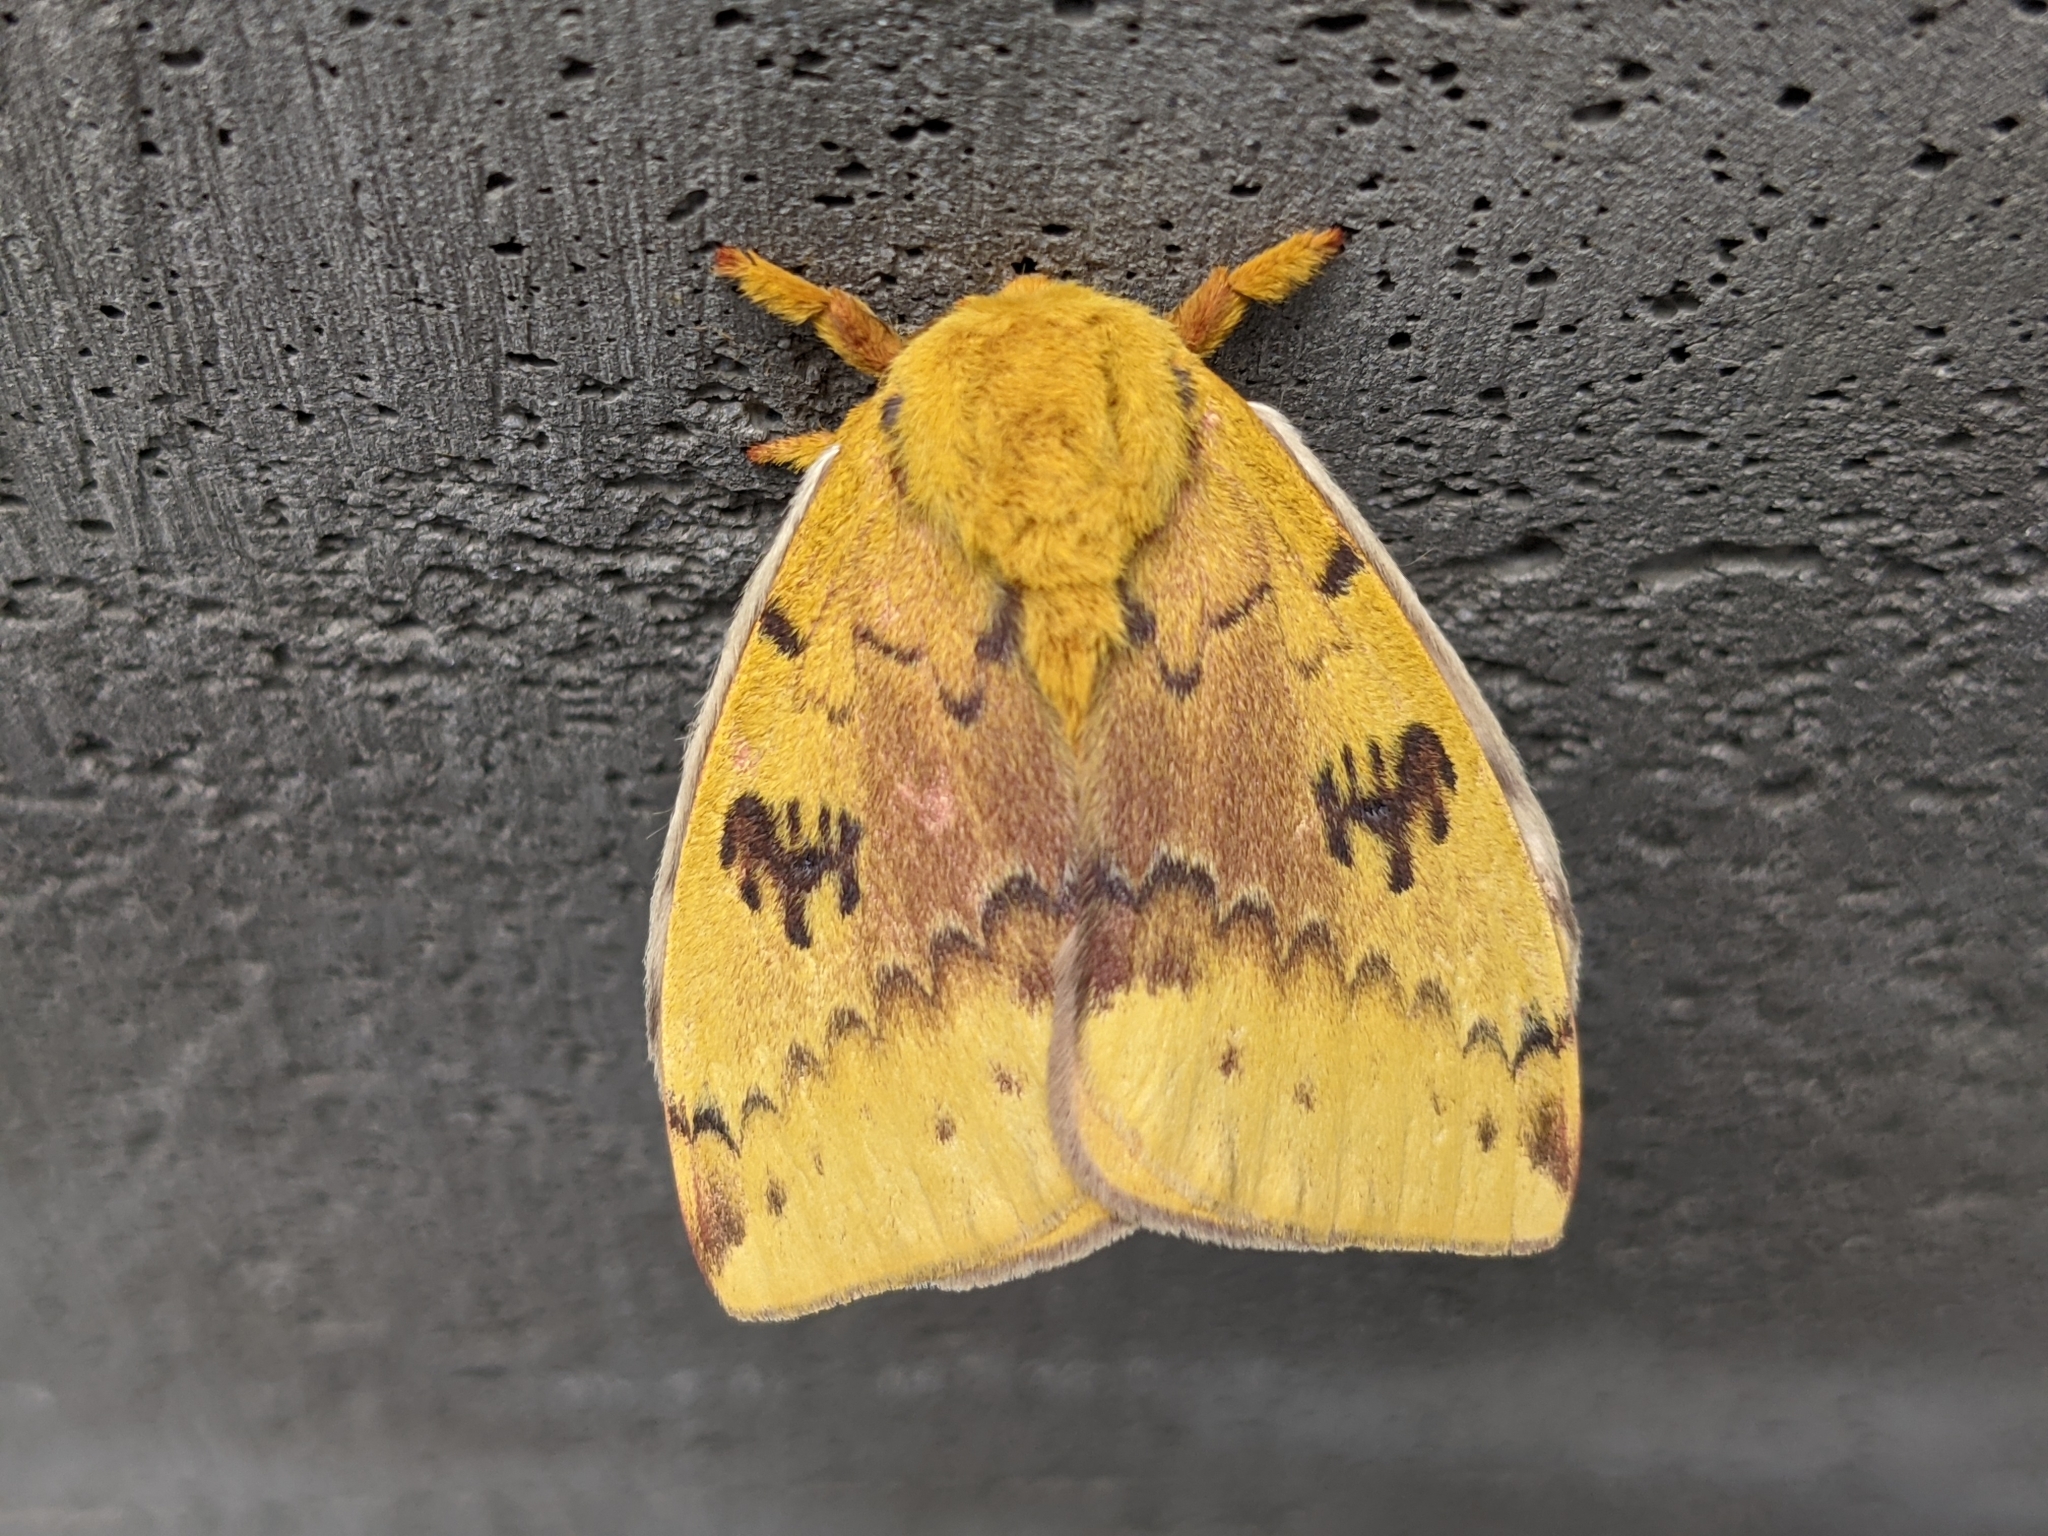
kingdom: Animalia
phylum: Arthropoda
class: Insecta
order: Lepidoptera
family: Saturniidae
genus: Automeris
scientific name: Automeris io
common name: Io moth
